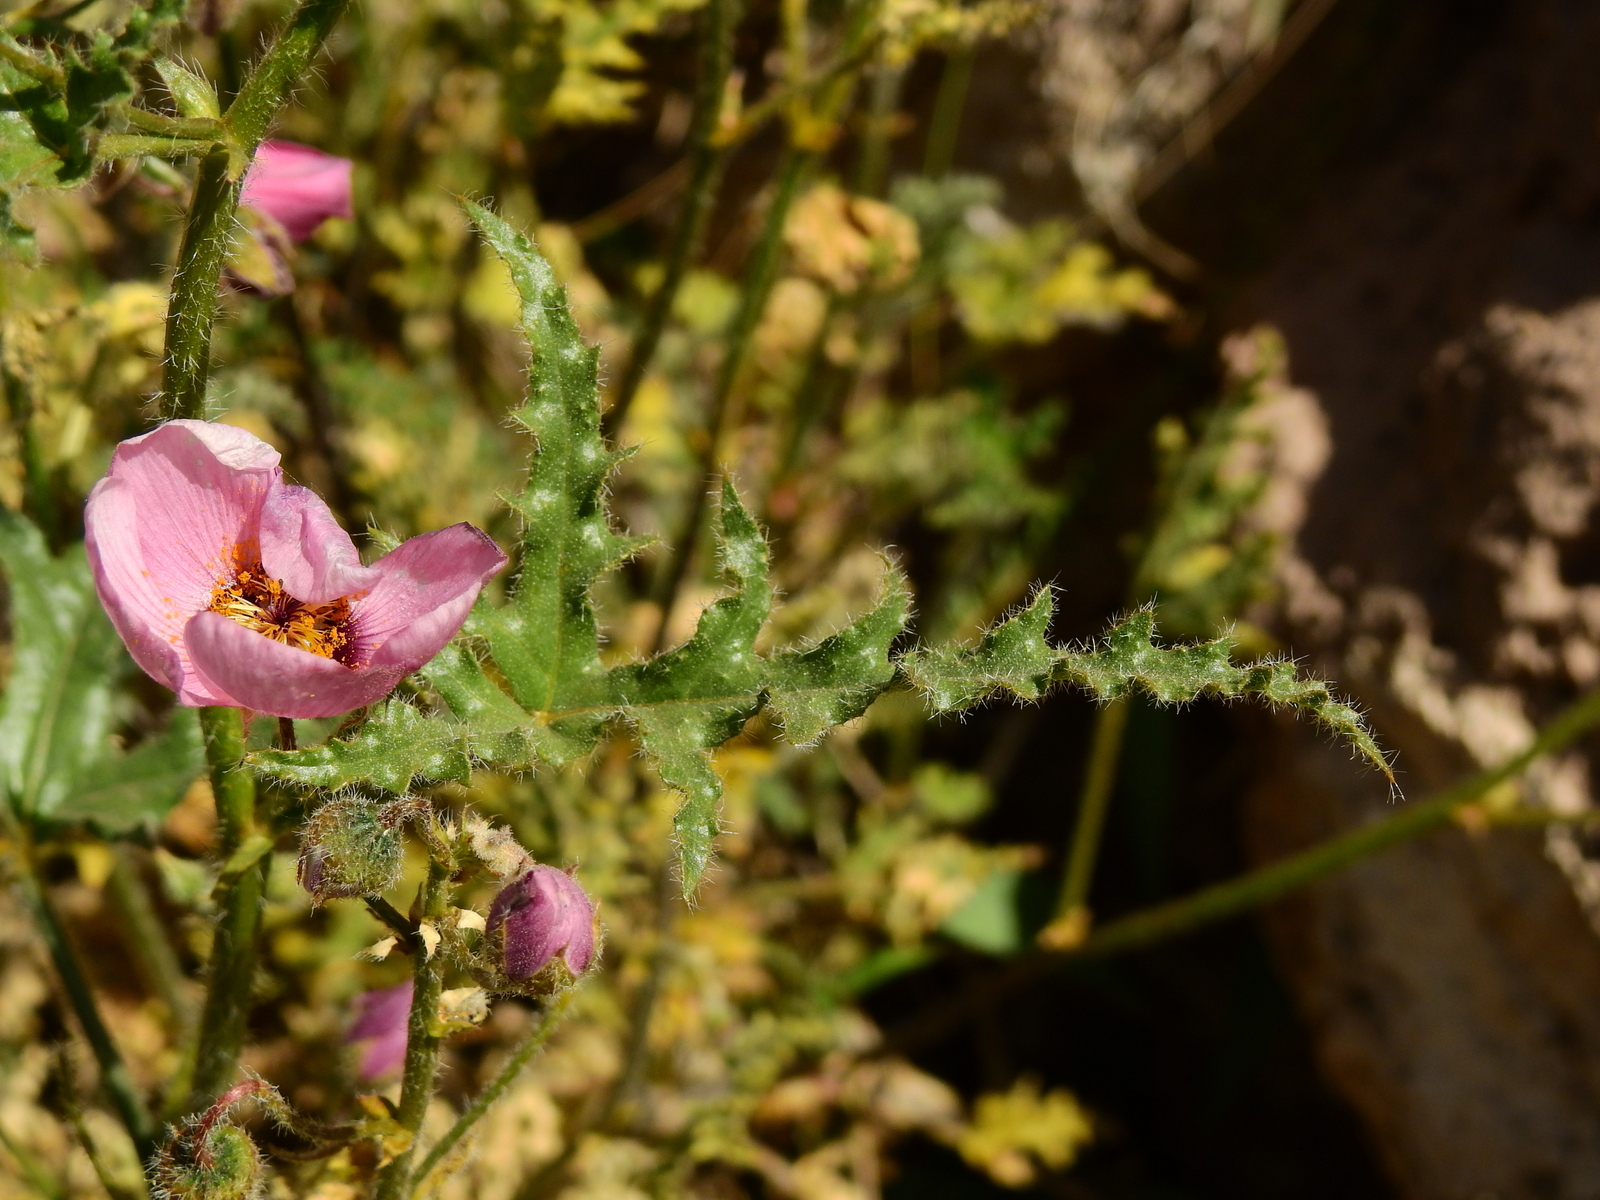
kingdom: Plantae
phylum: Tracheophyta
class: Magnoliopsida
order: Malvales
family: Malvaceae
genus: Lecanophora
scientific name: Lecanophora heterophylla
